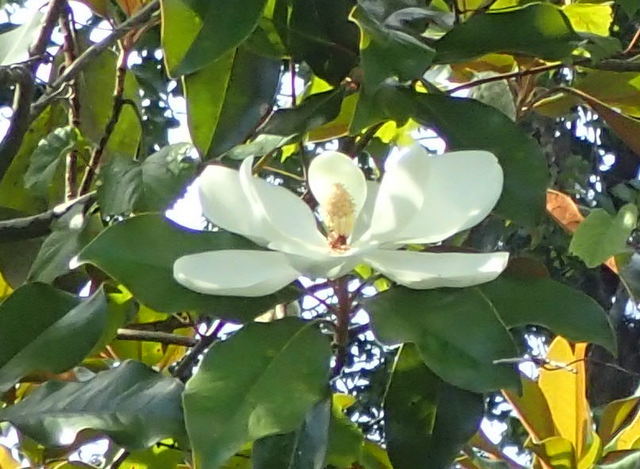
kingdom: Plantae
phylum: Tracheophyta
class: Magnoliopsida
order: Magnoliales
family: Magnoliaceae
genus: Magnolia
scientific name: Magnolia grandiflora
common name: Southern magnolia
